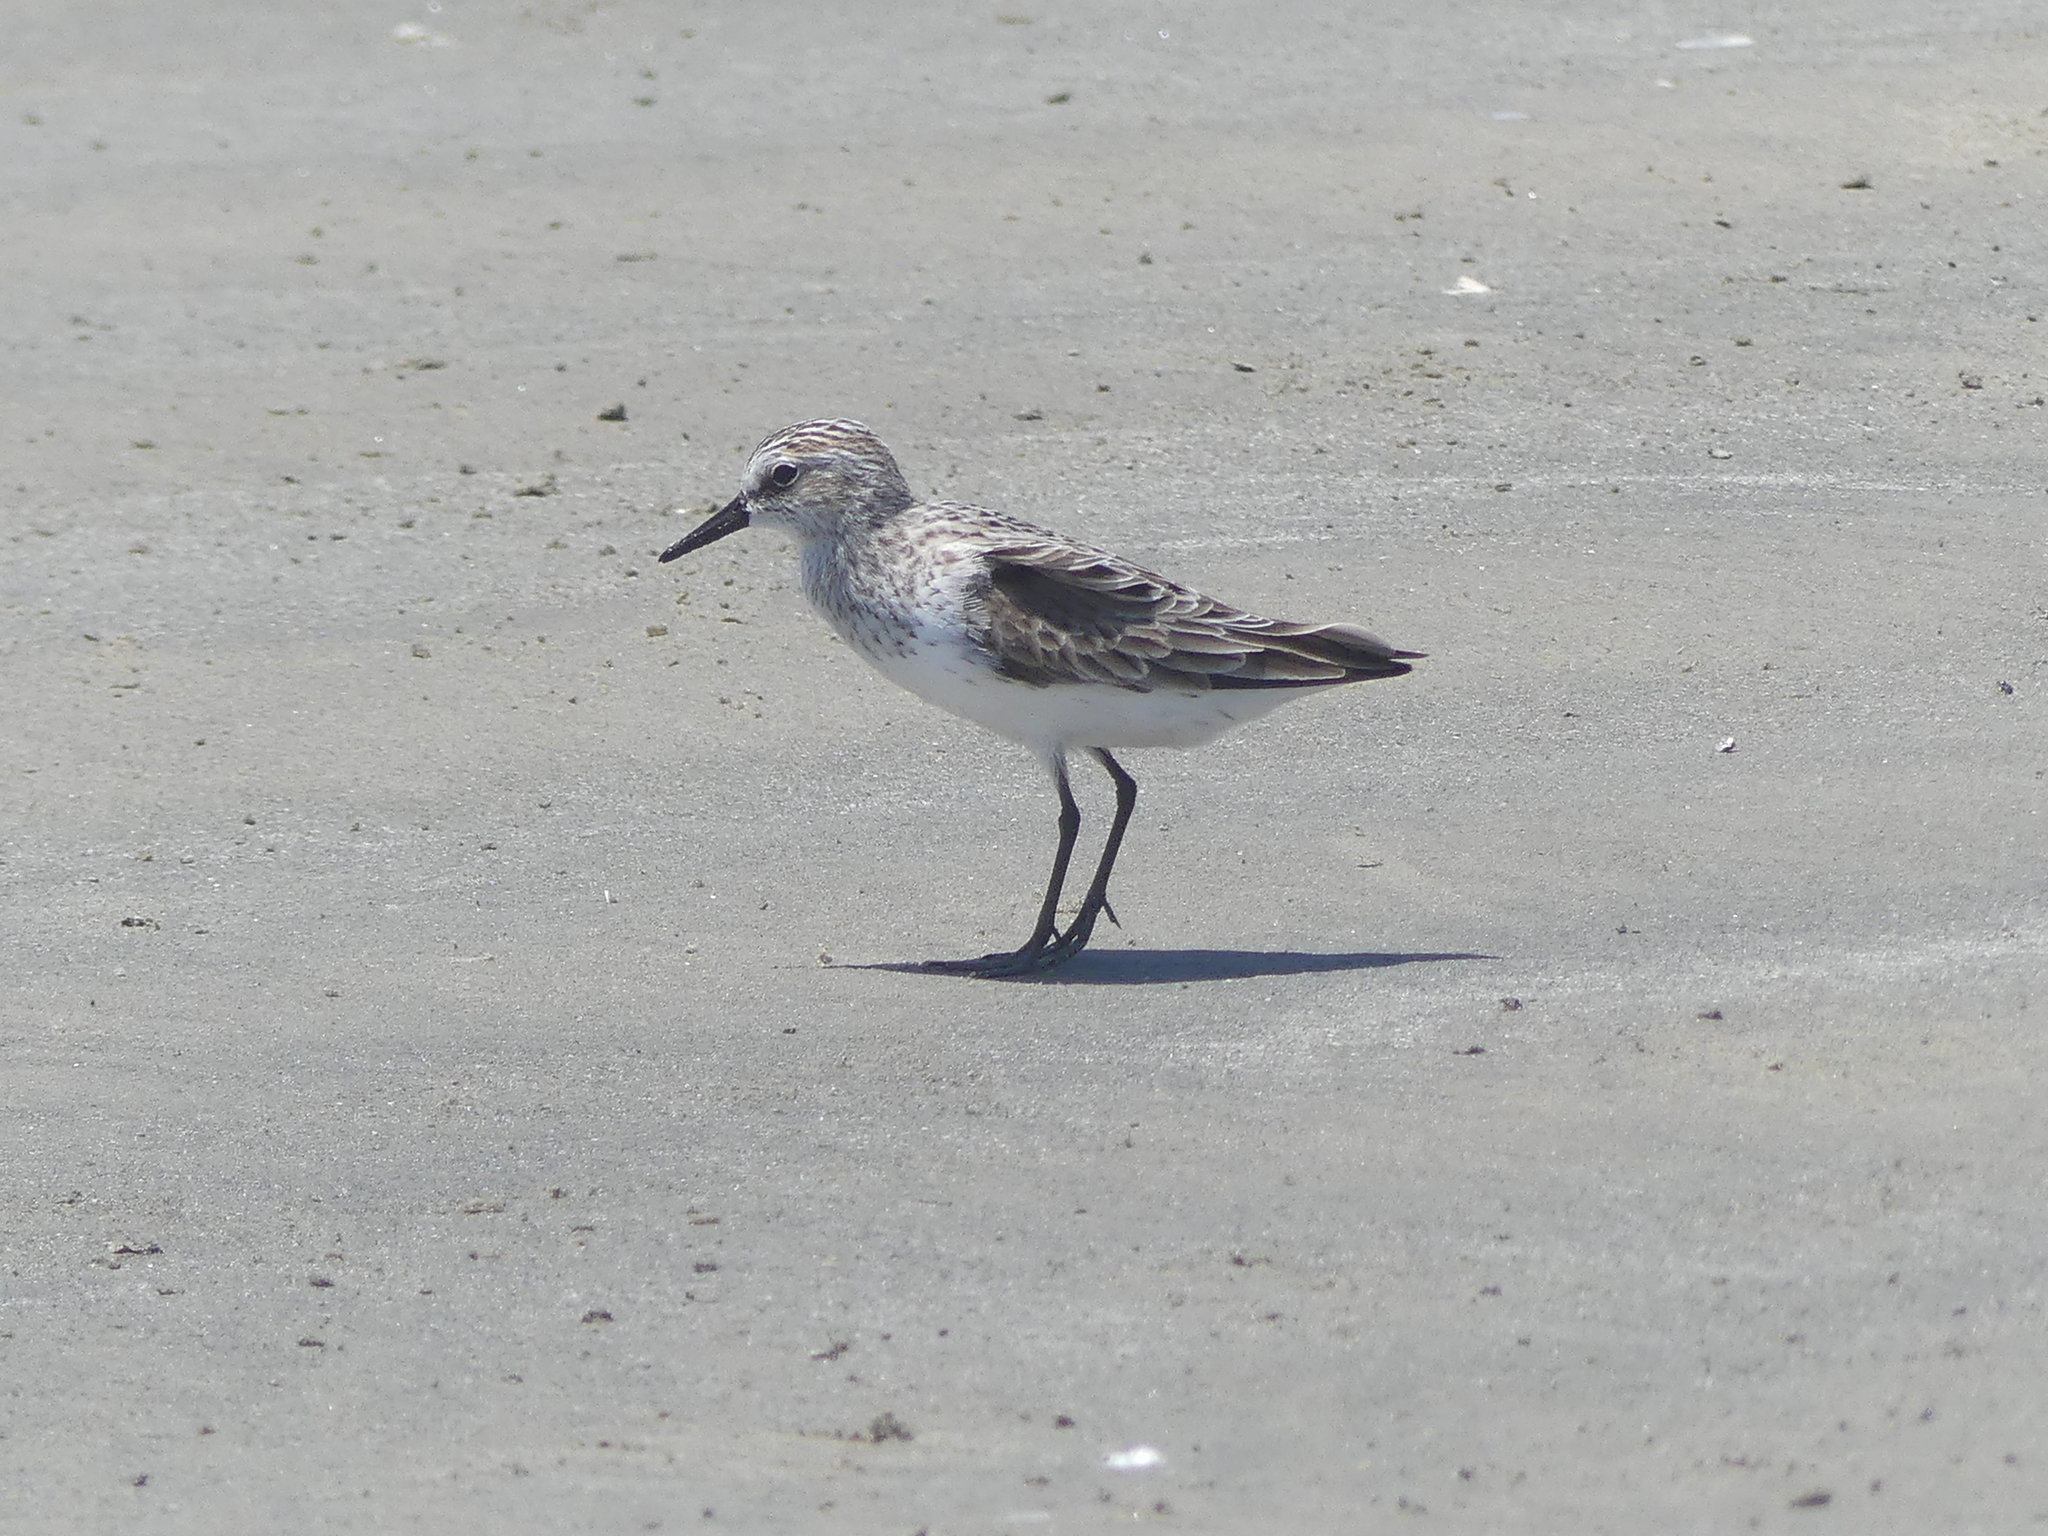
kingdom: Animalia
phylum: Chordata
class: Aves
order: Charadriiformes
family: Scolopacidae
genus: Calidris
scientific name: Calidris pusilla
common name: Semipalmated sandpiper
